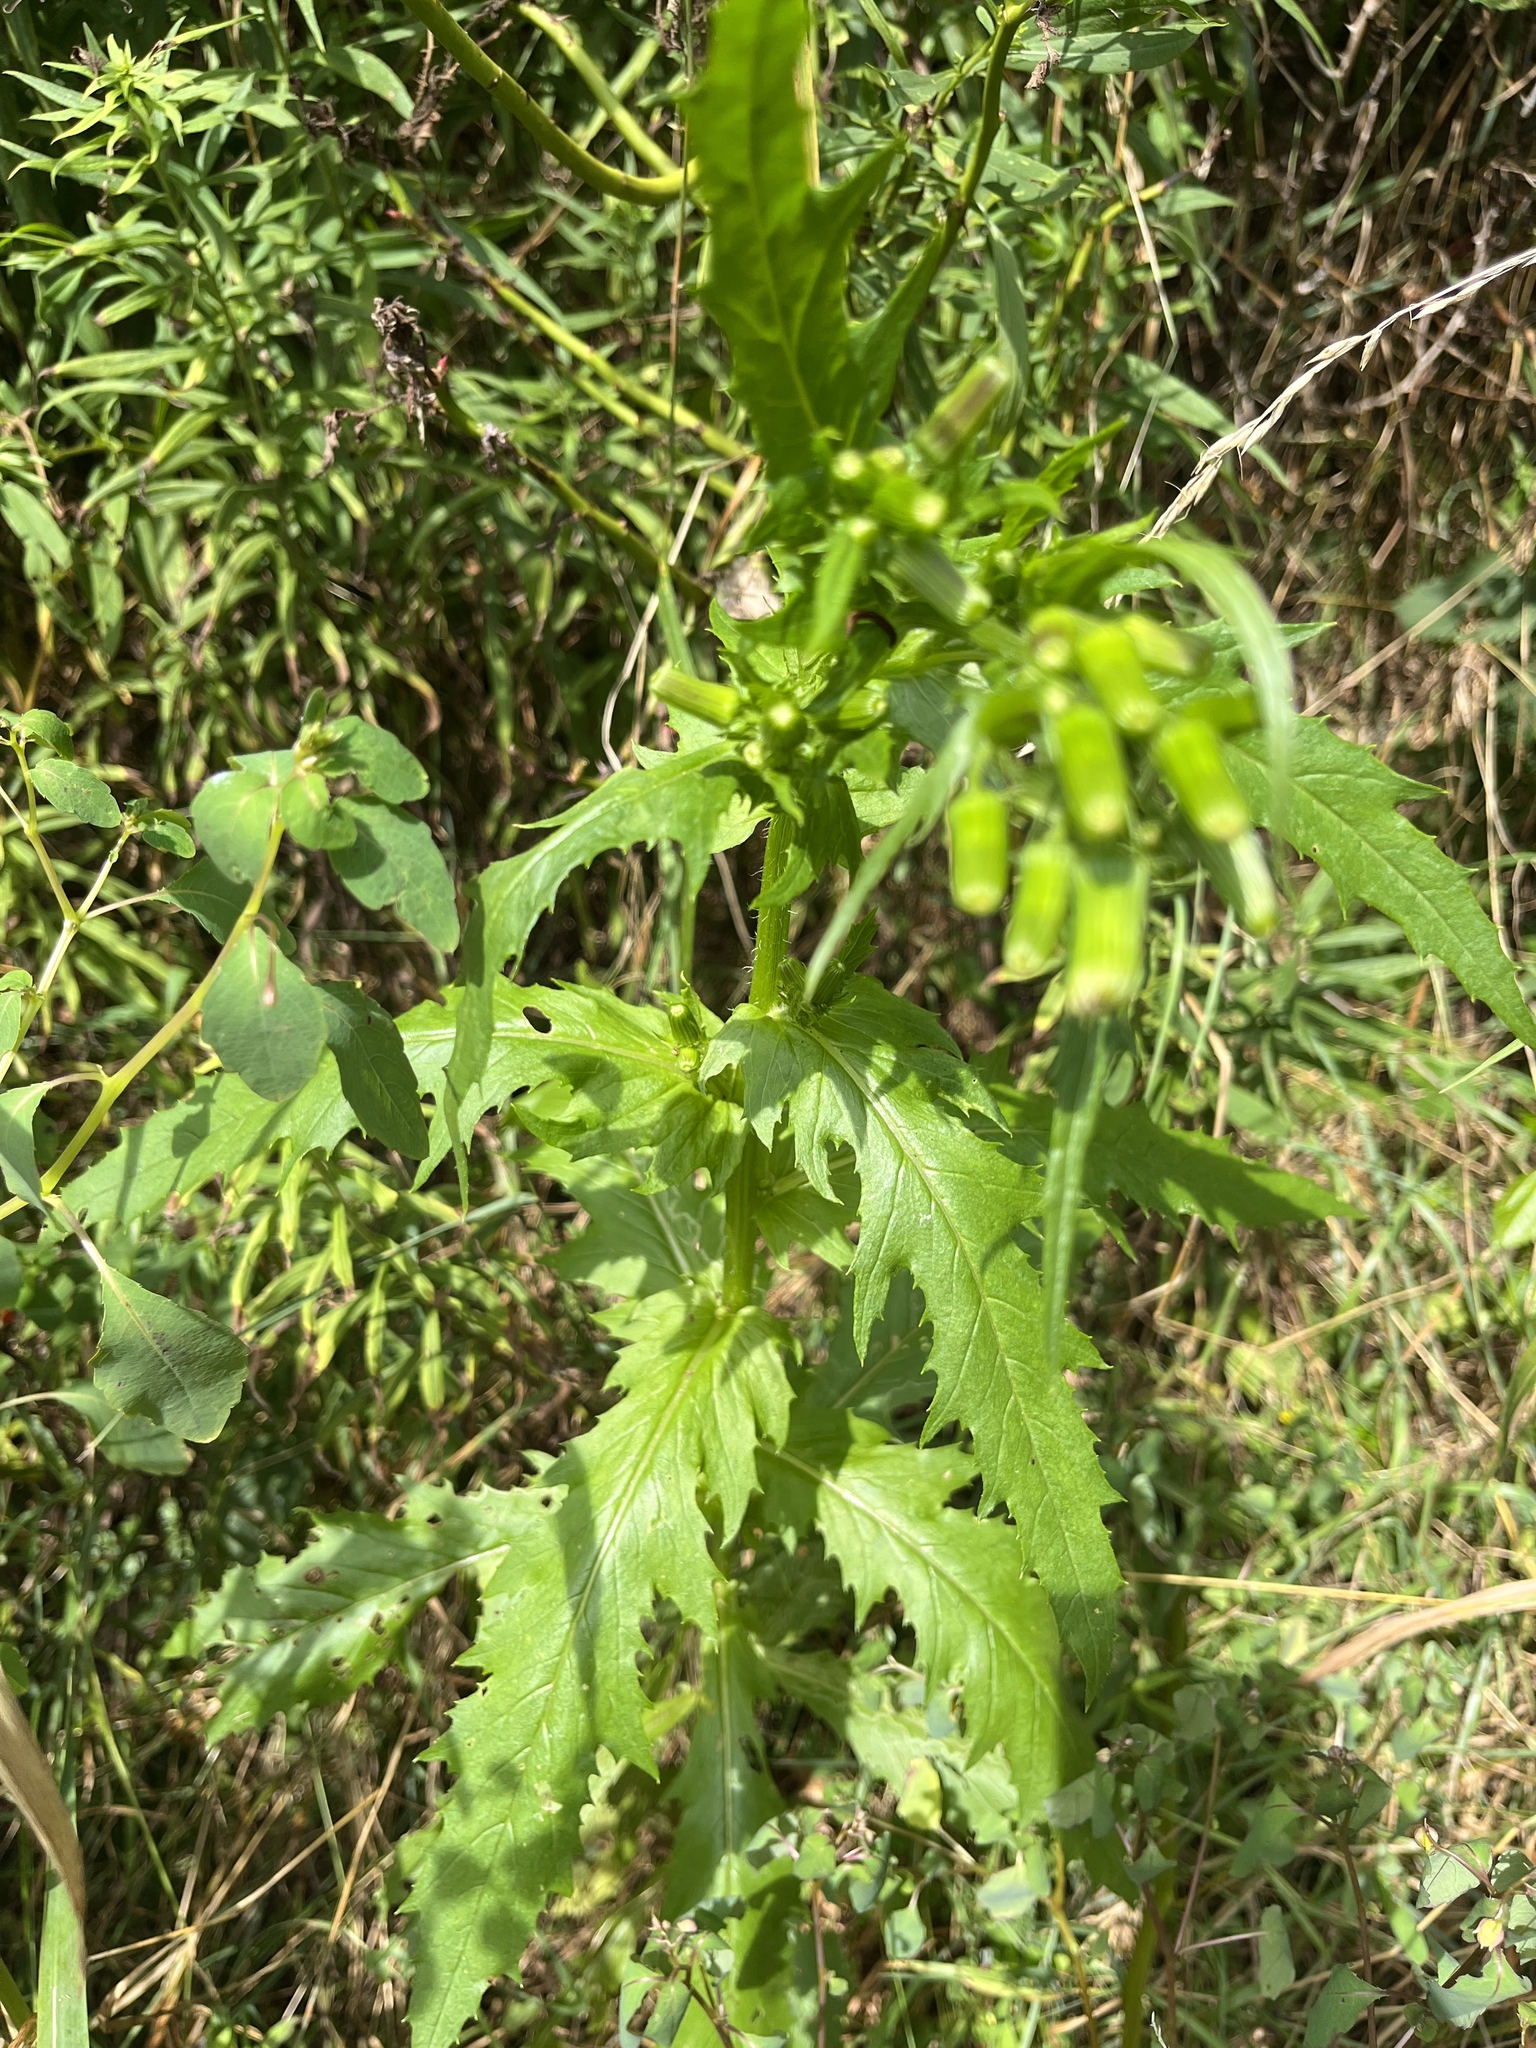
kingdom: Plantae
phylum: Tracheophyta
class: Magnoliopsida
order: Asterales
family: Asteraceae
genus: Erechtites
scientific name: Erechtites hieraciifolius
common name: American burnweed
